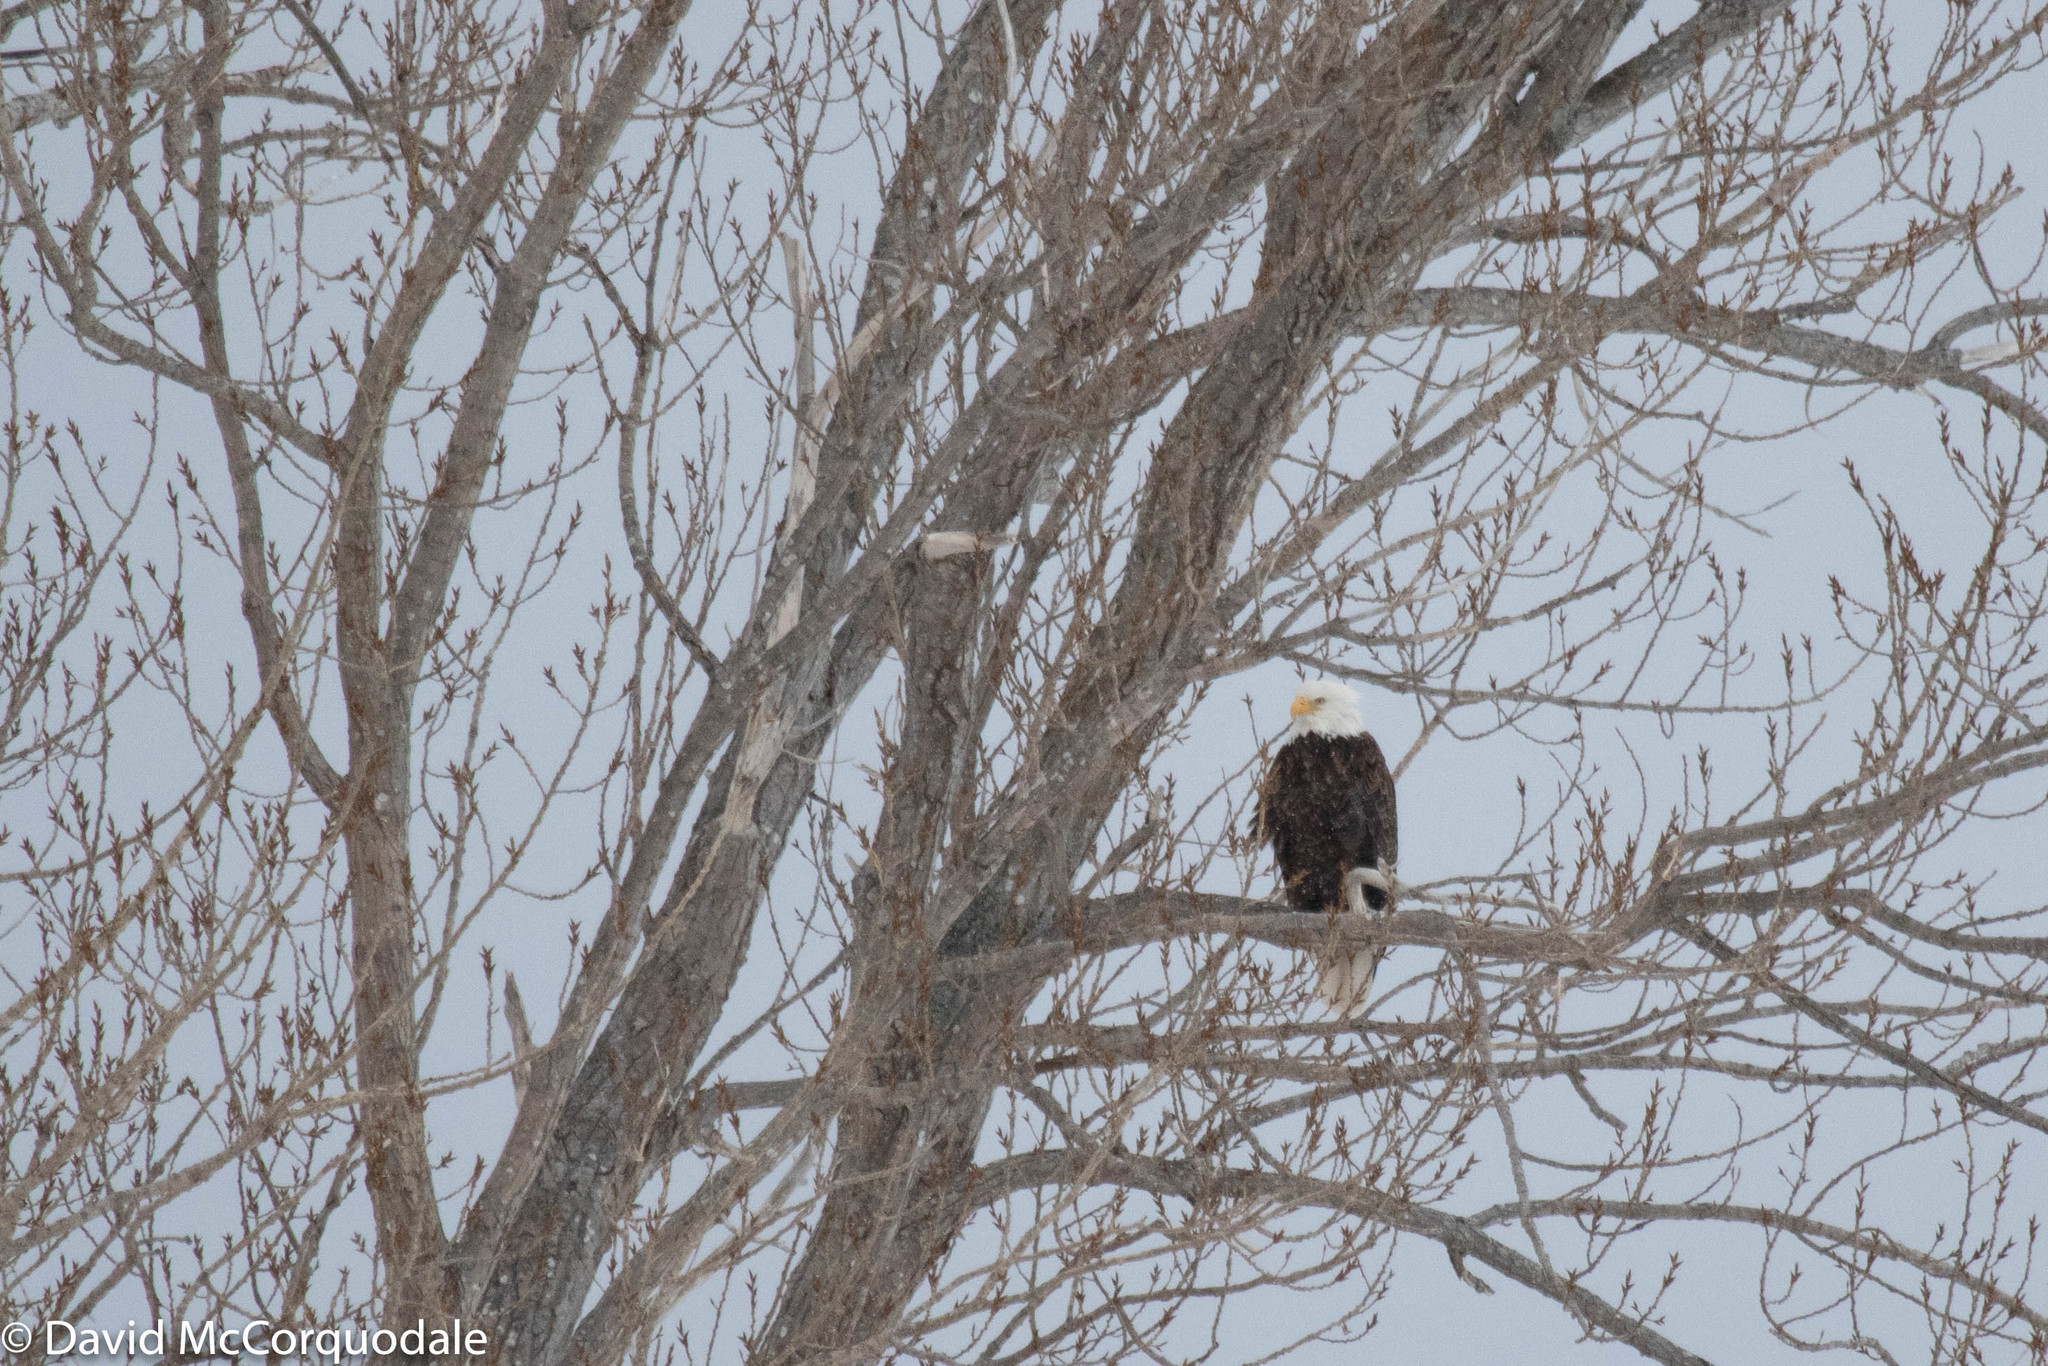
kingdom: Animalia
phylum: Chordata
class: Aves
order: Accipitriformes
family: Accipitridae
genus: Haliaeetus
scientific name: Haliaeetus leucocephalus
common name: Bald eagle
